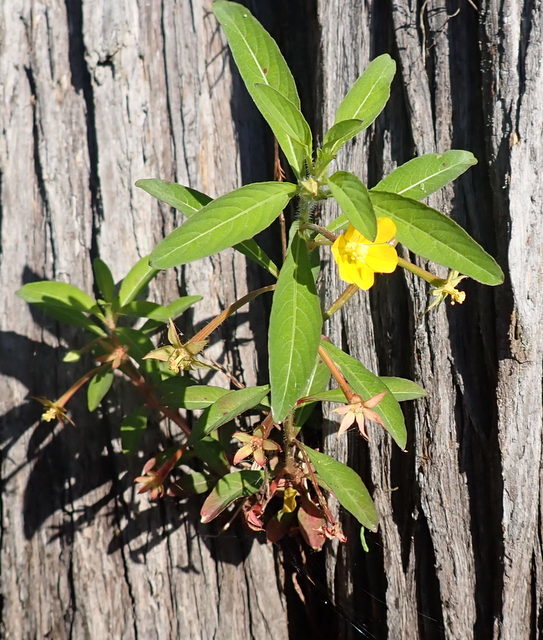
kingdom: Plantae
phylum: Tracheophyta
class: Magnoliopsida
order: Myrtales
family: Onagraceae
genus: Ludwigia
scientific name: Ludwigia leptocarpa
